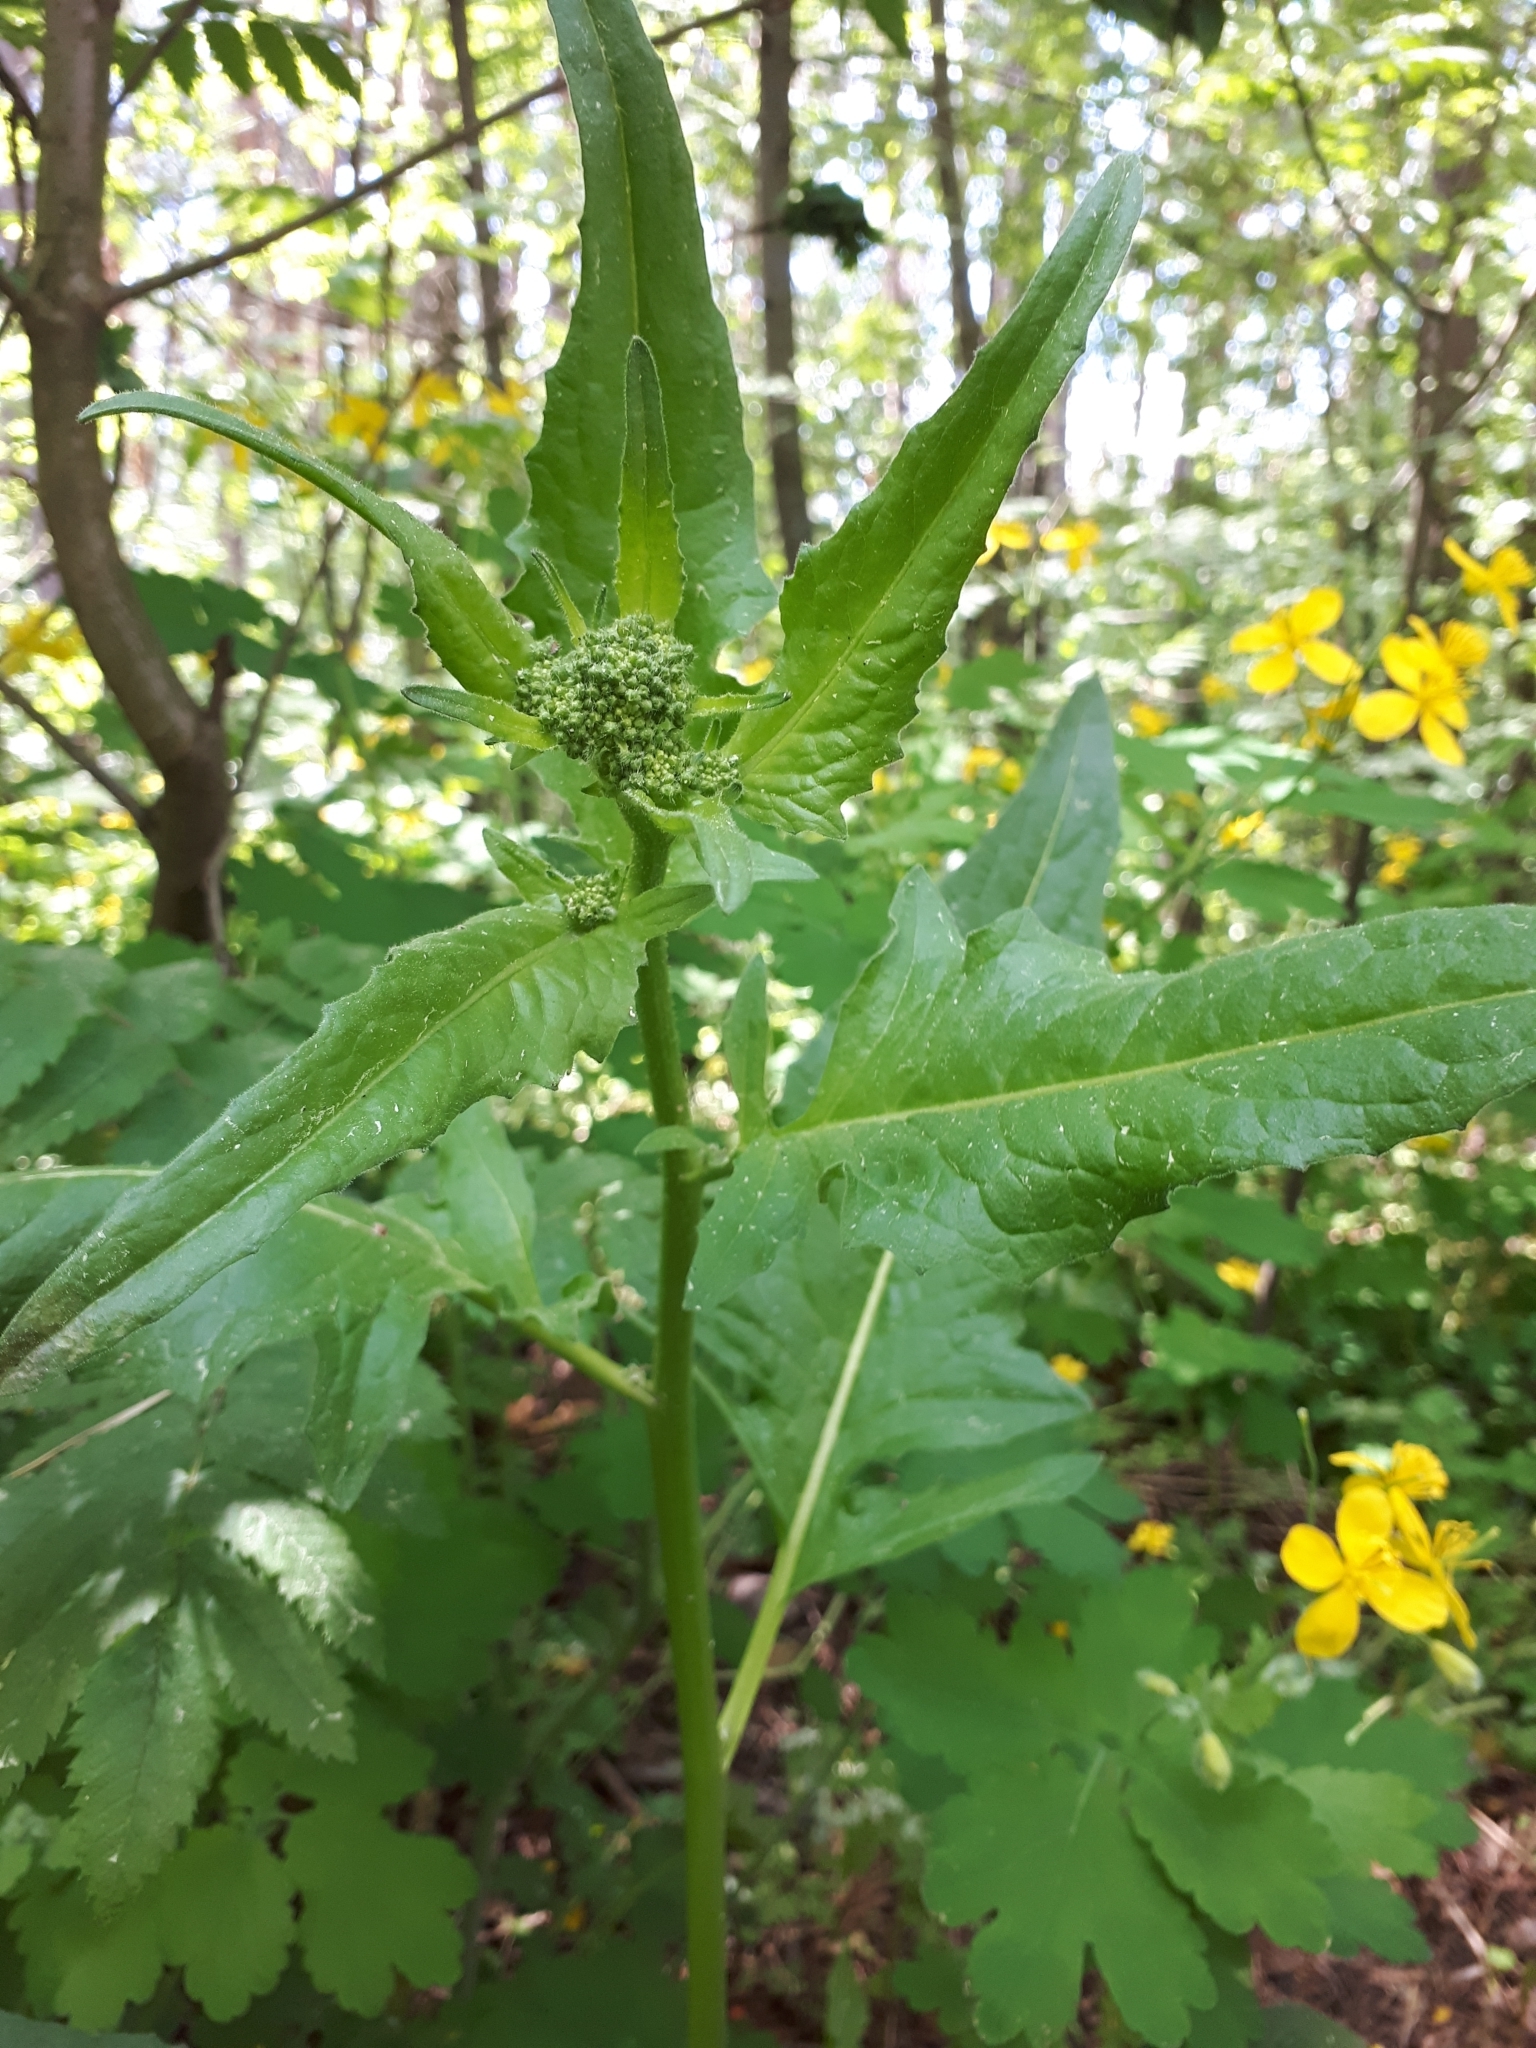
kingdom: Plantae
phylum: Tracheophyta
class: Magnoliopsida
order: Brassicales
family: Brassicaceae
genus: Bunias
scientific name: Bunias orientalis
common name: Warty-cabbage
